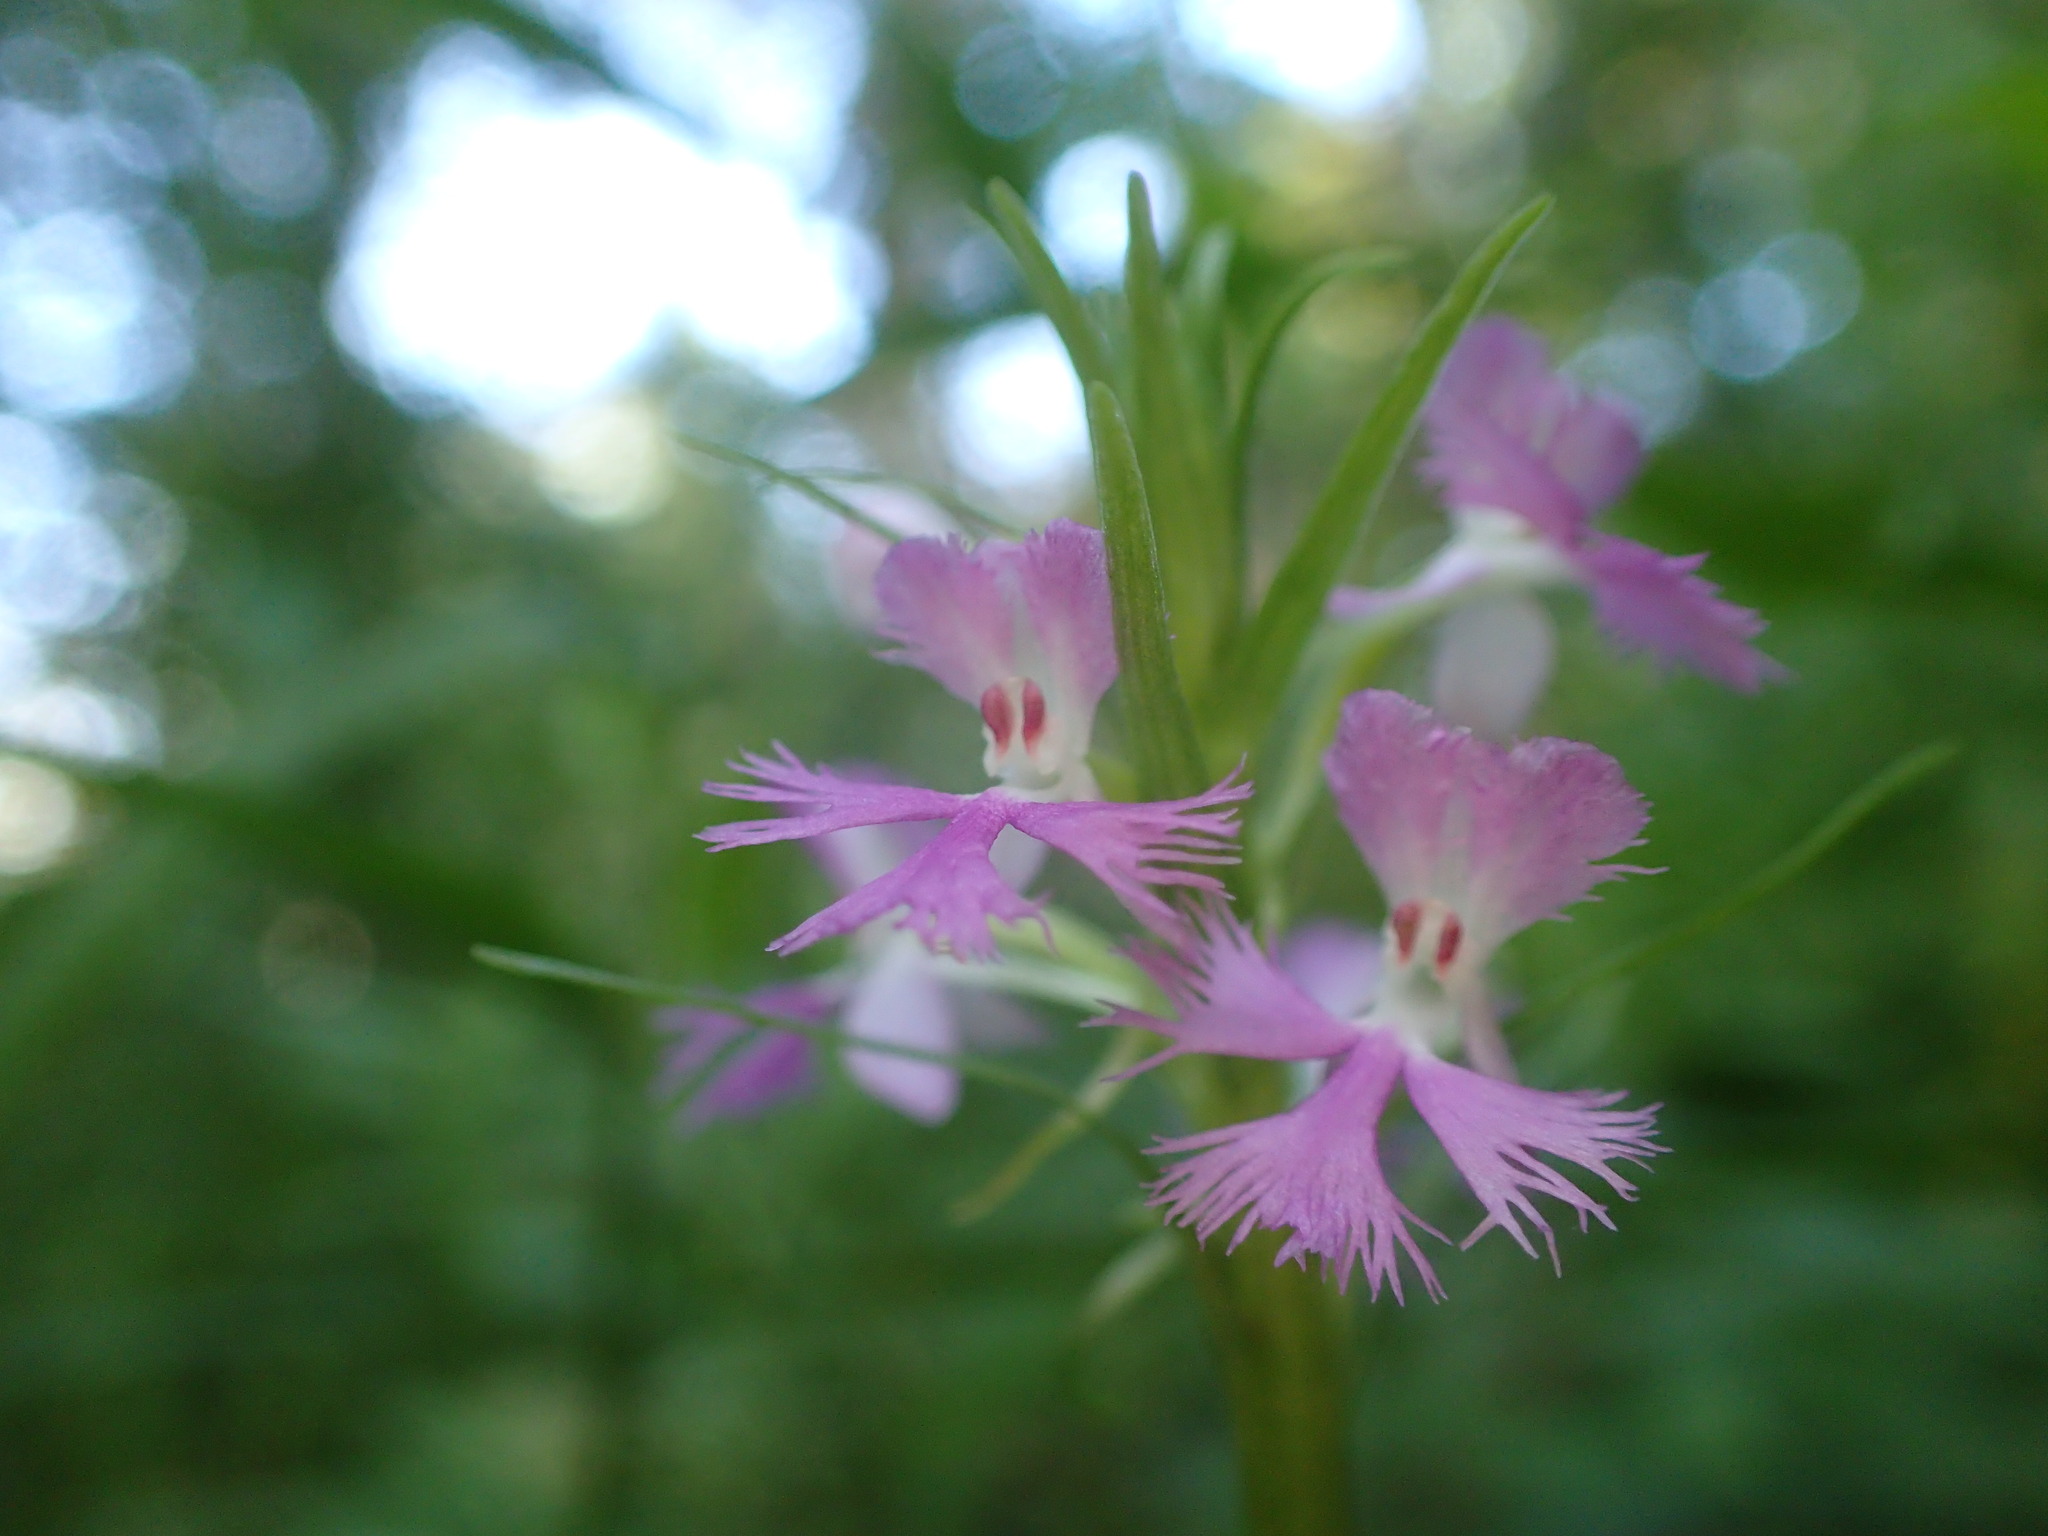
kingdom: Plantae
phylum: Tracheophyta
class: Liliopsida
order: Asparagales
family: Orchidaceae
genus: Platanthera
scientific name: Platanthera psycodes
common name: Lesser purple fringed orchid
